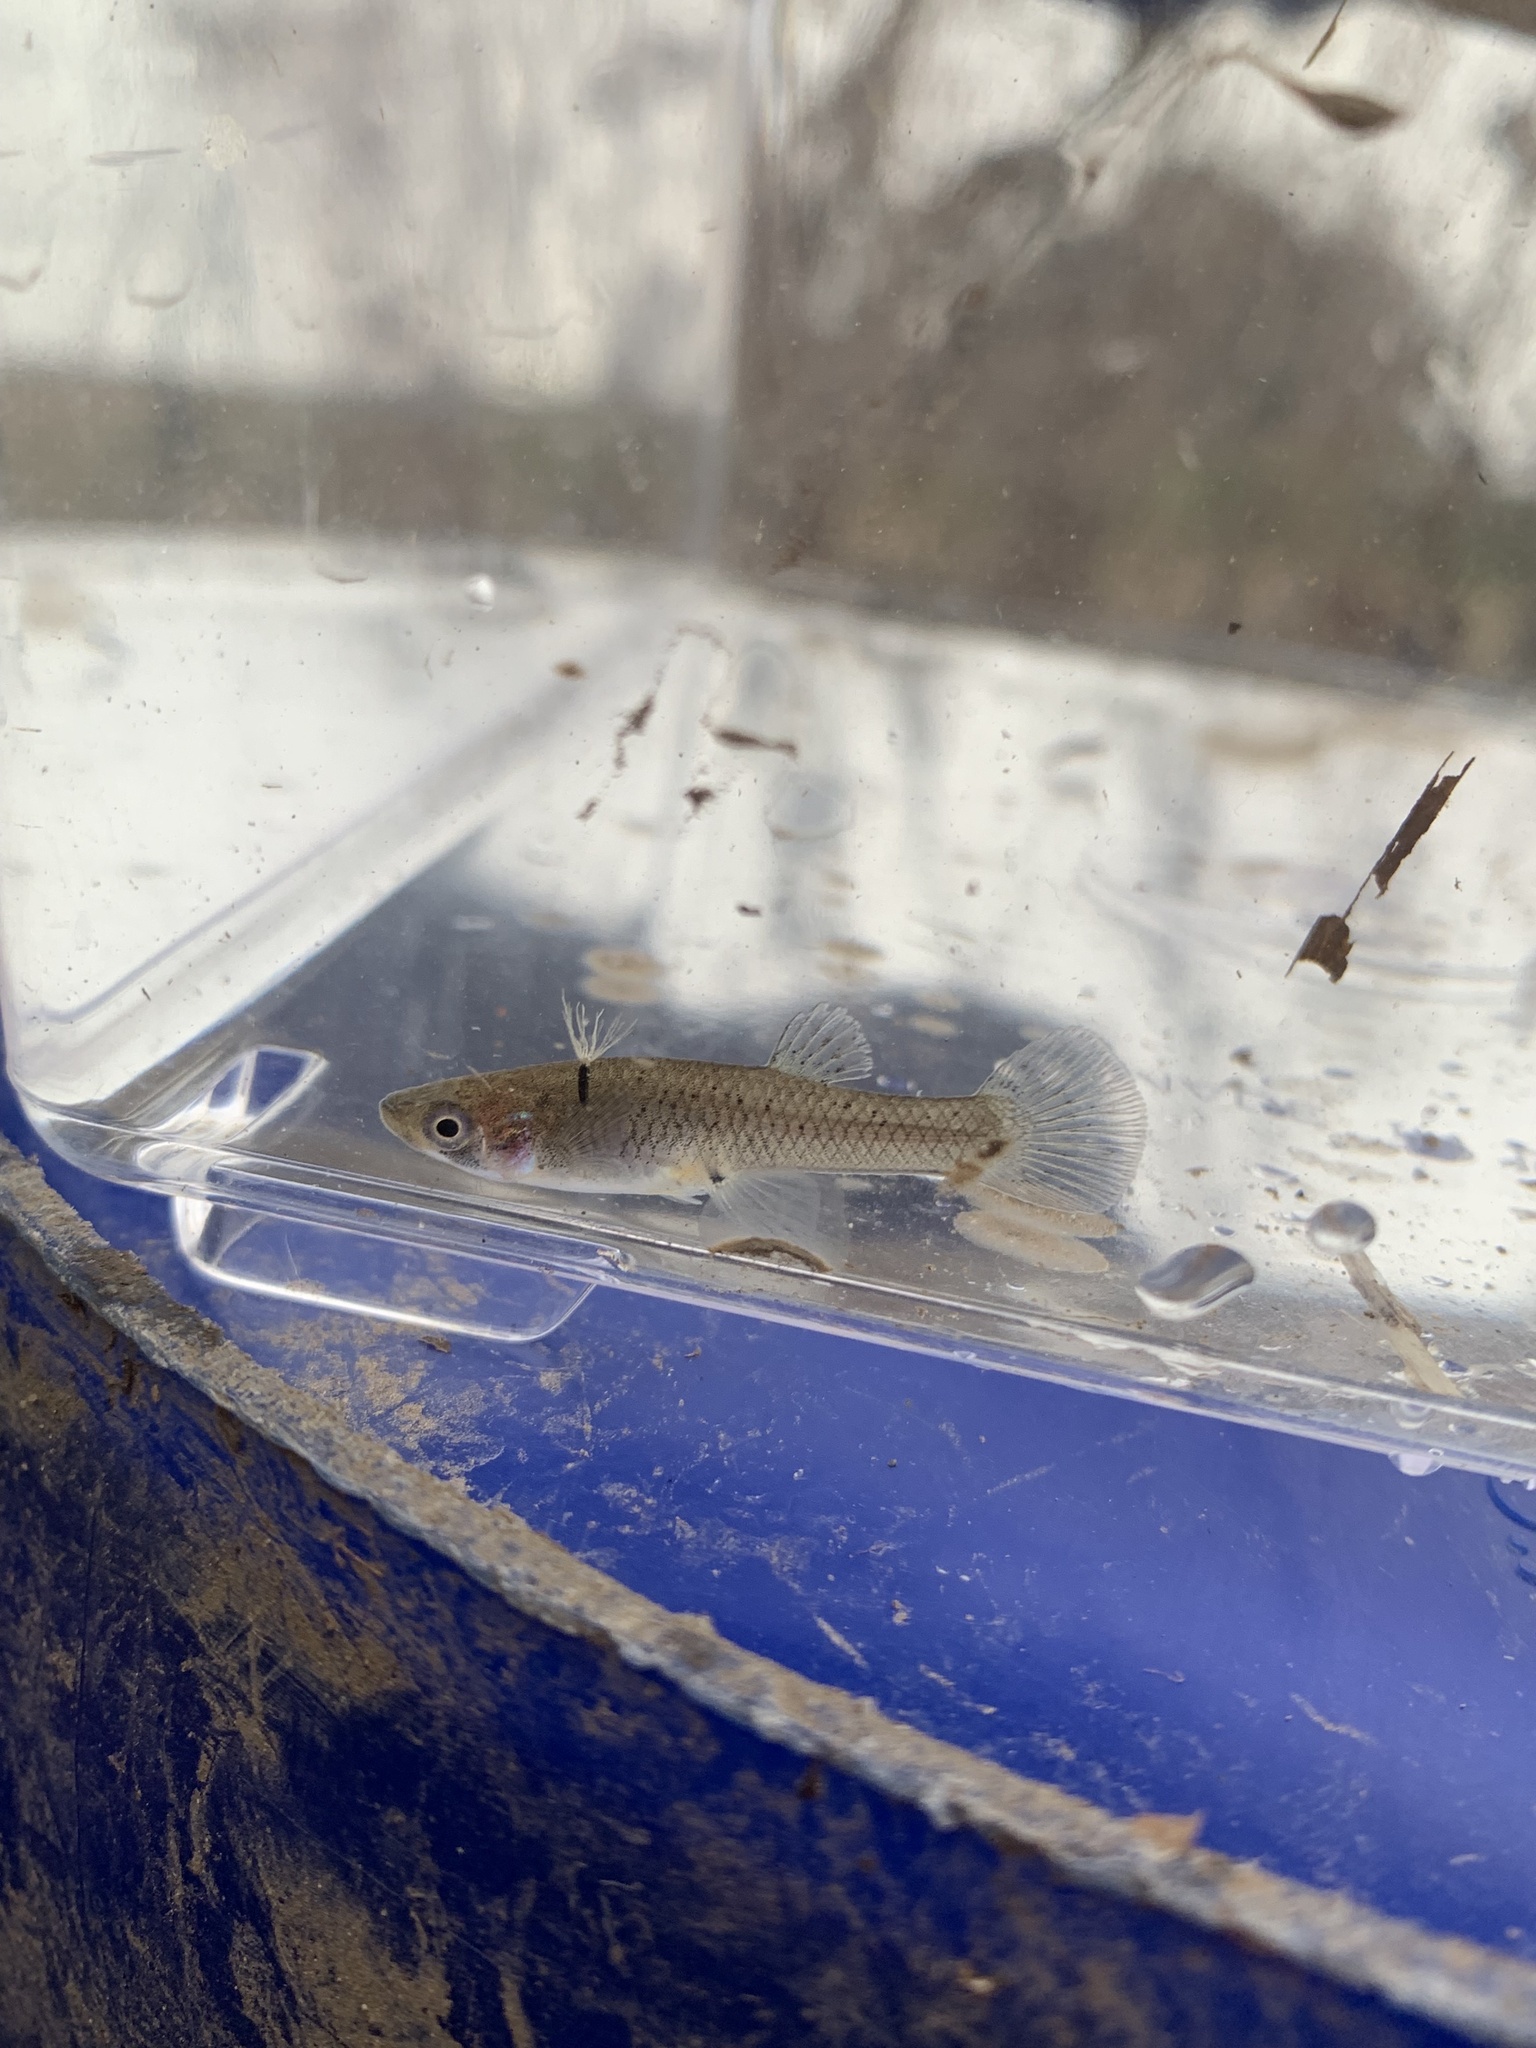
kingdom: Animalia
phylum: Chordata
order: Cyprinodontiformes
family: Poeciliidae
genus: Gambusia
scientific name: Gambusia affinis
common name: Mosquitofish
